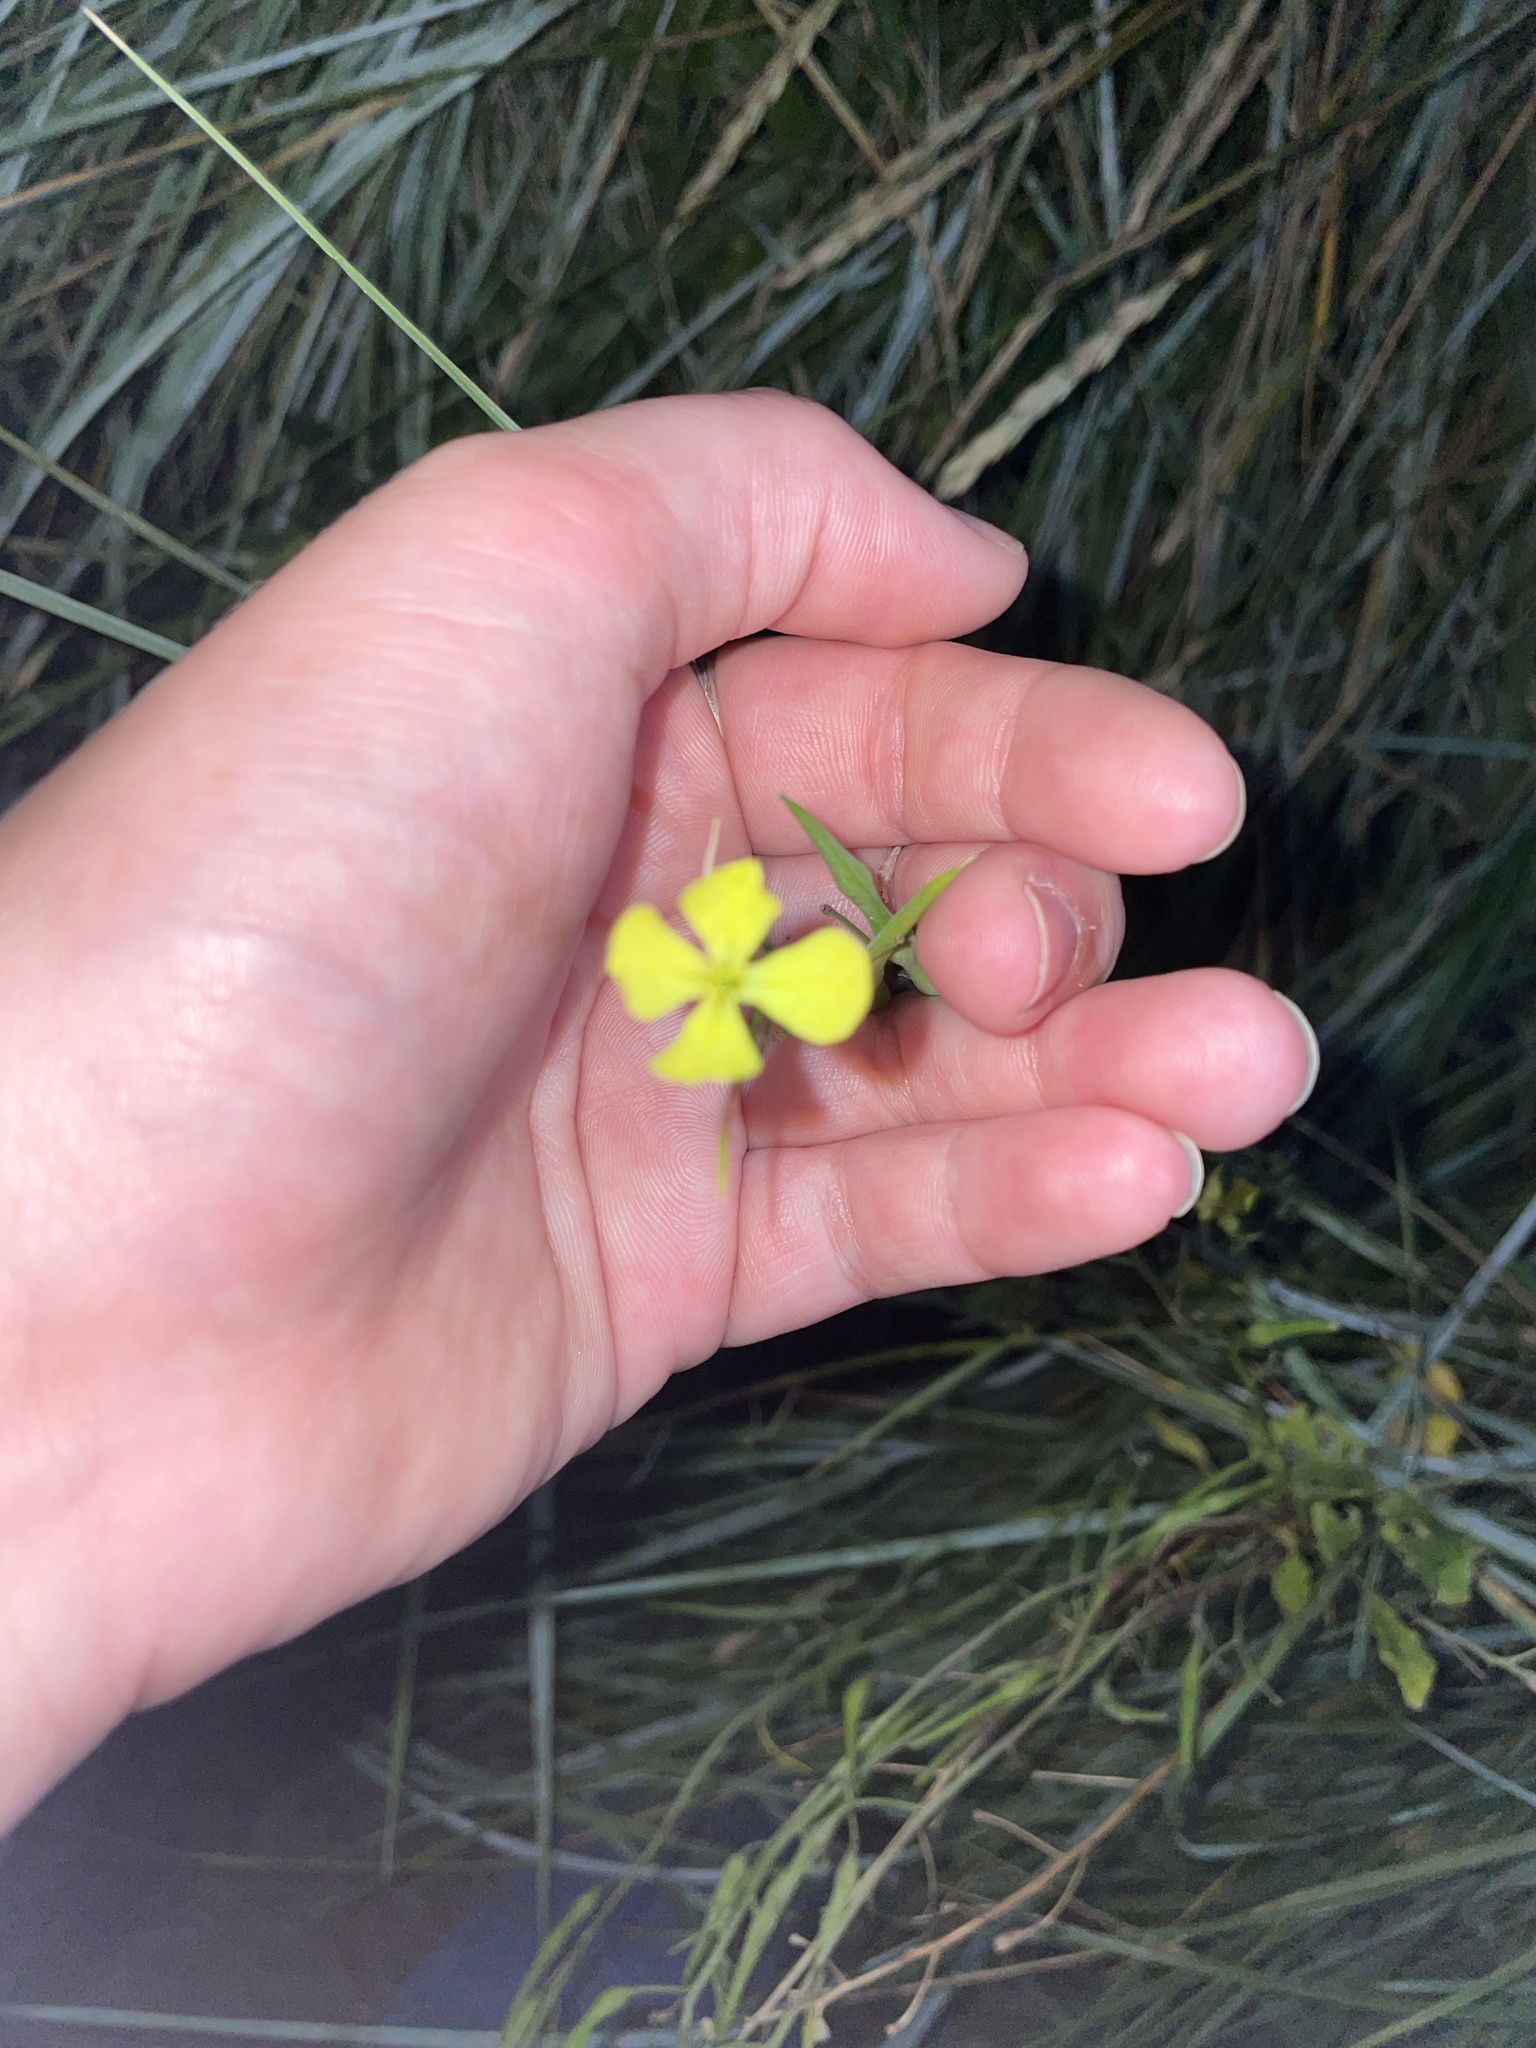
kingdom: Plantae
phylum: Tracheophyta
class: Magnoliopsida
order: Brassicales
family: Brassicaceae
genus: Raphanus
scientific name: Raphanus raphanistrum
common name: Wild radish
